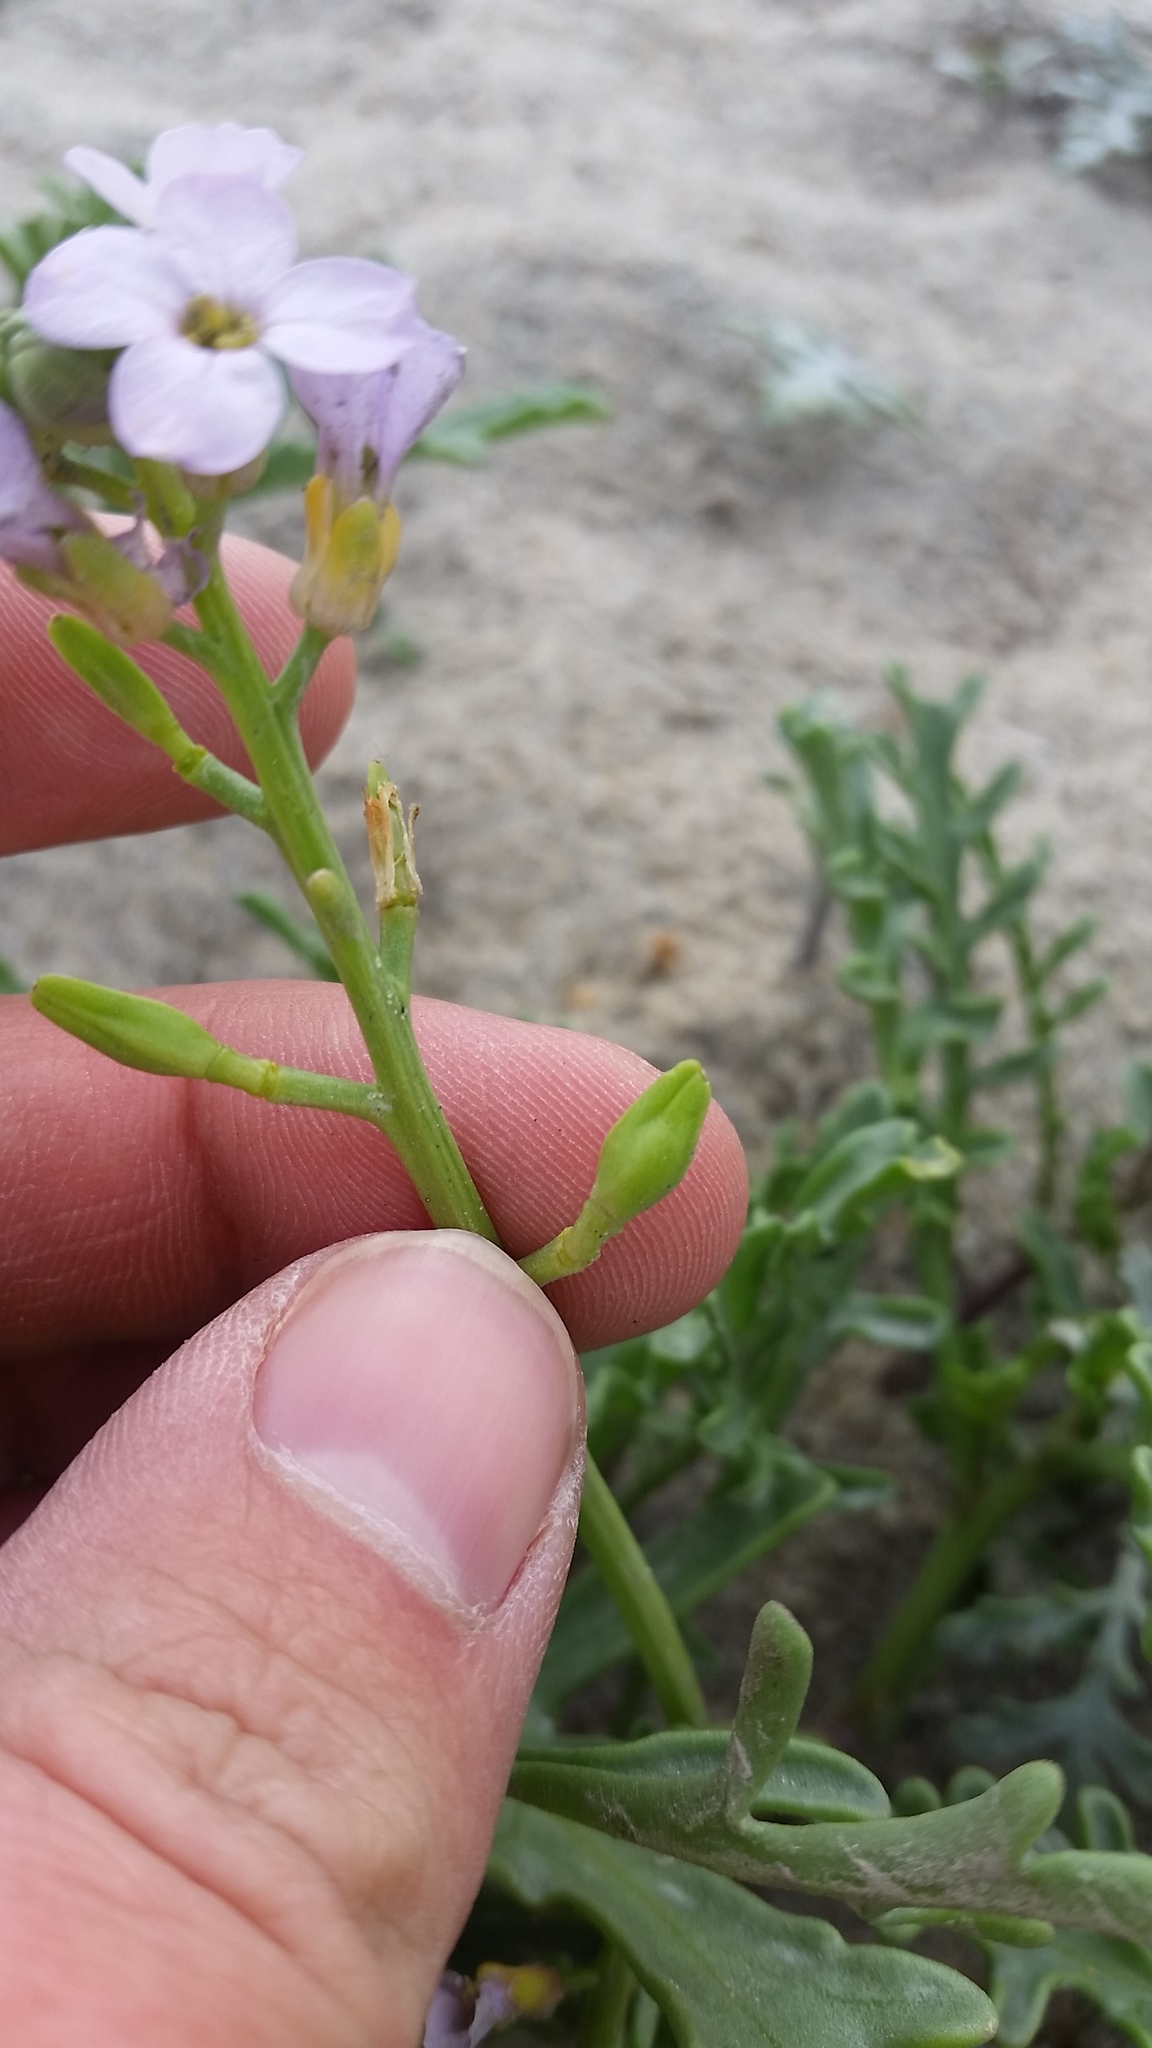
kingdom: Plantae
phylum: Tracheophyta
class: Magnoliopsida
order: Brassicales
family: Brassicaceae
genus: Cakile
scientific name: Cakile maritima
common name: Sea rocket
